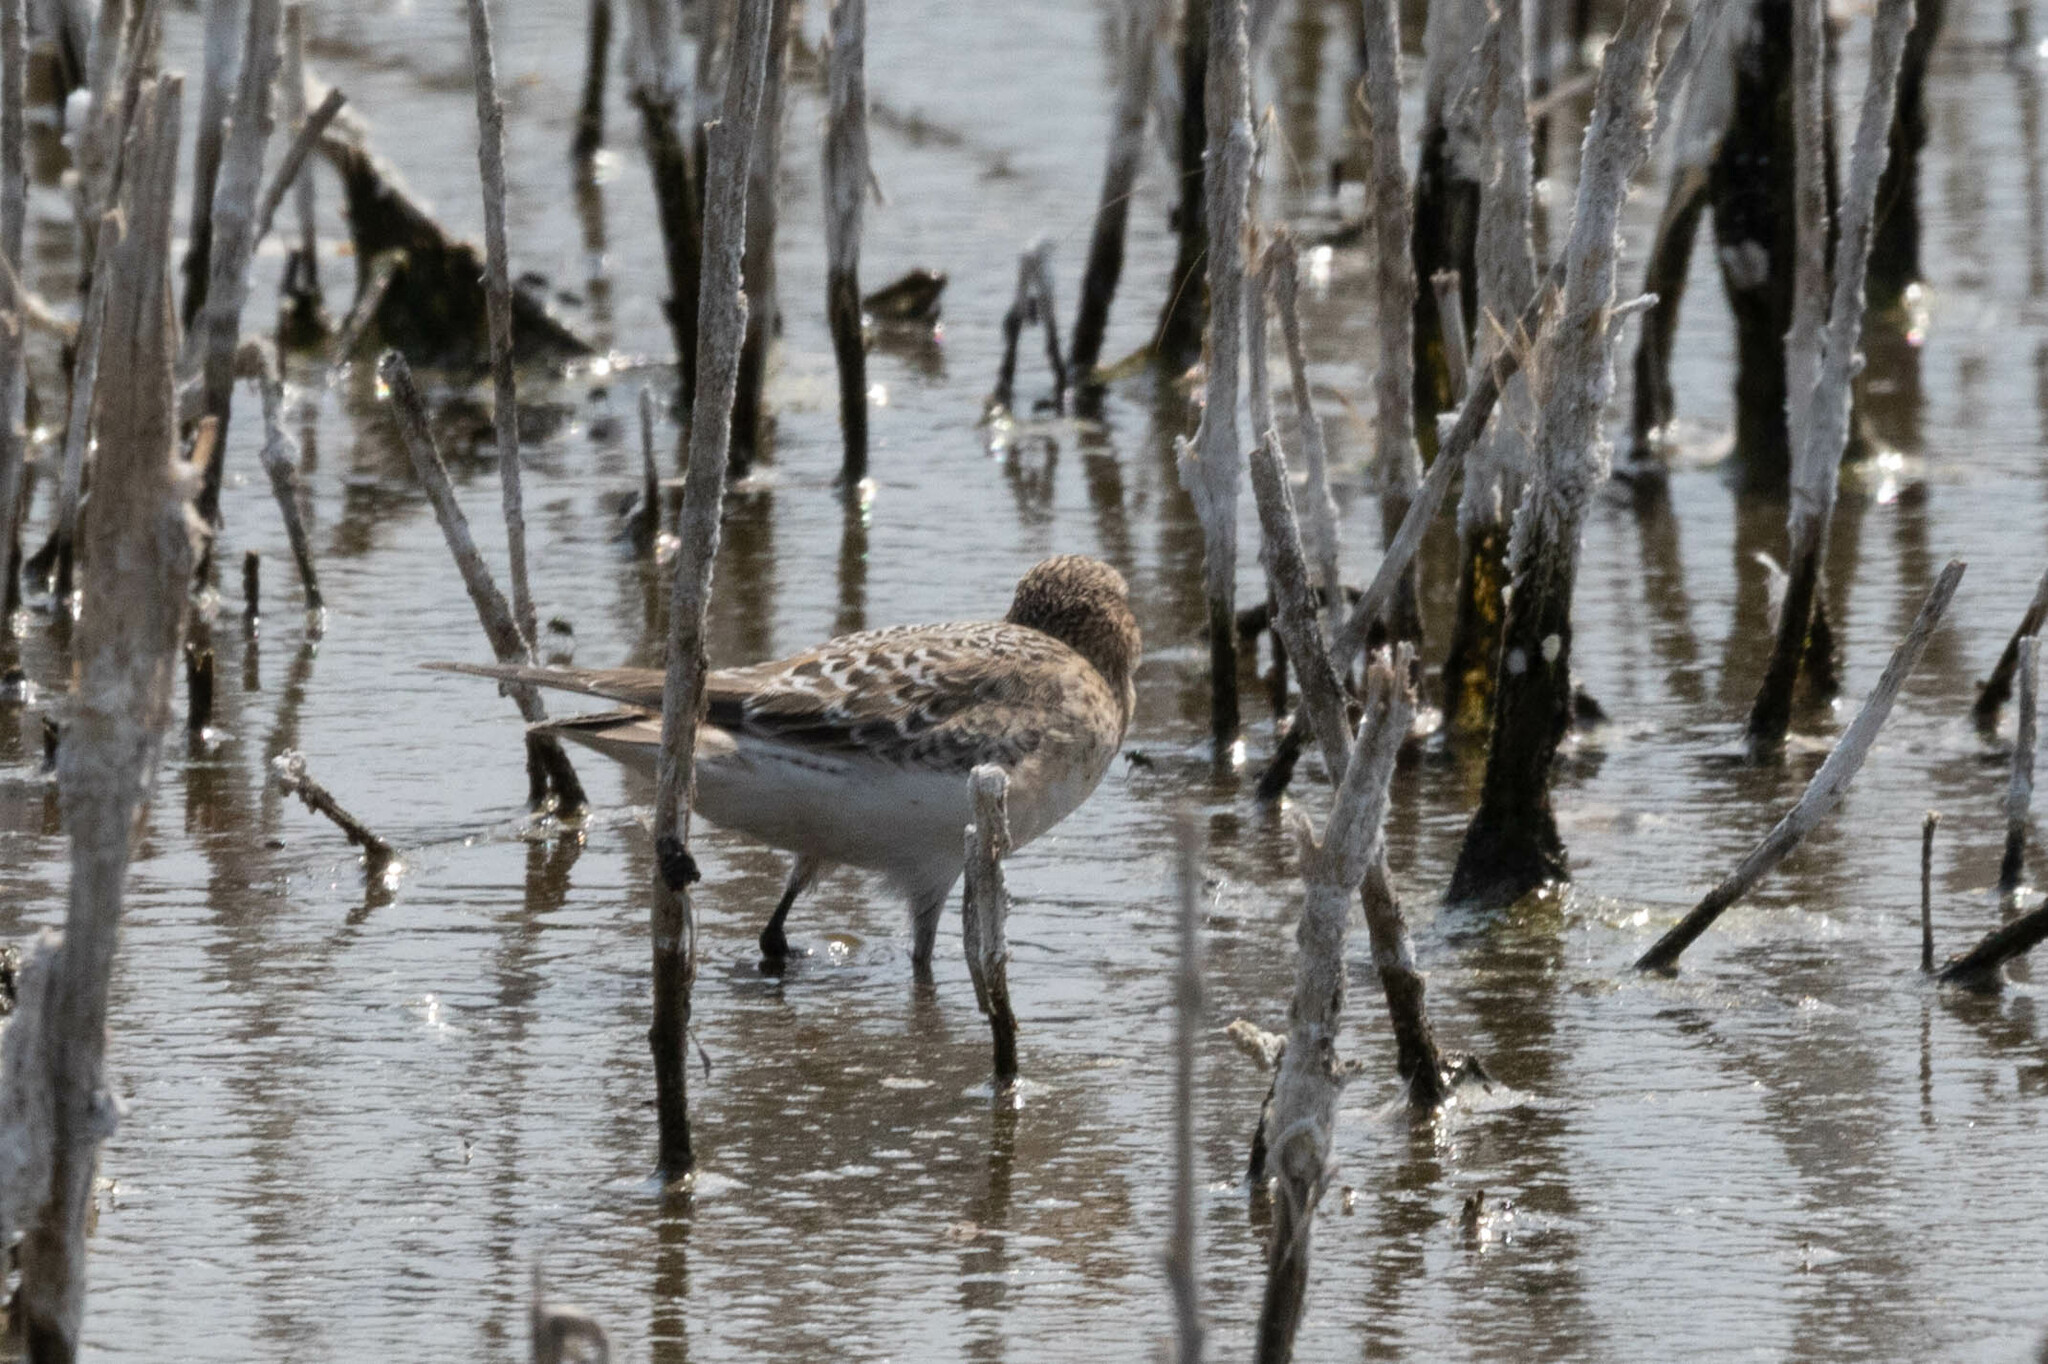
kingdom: Animalia
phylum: Chordata
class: Aves
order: Charadriiformes
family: Scolopacidae
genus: Calidris
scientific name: Calidris bairdii
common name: Baird's sandpiper
